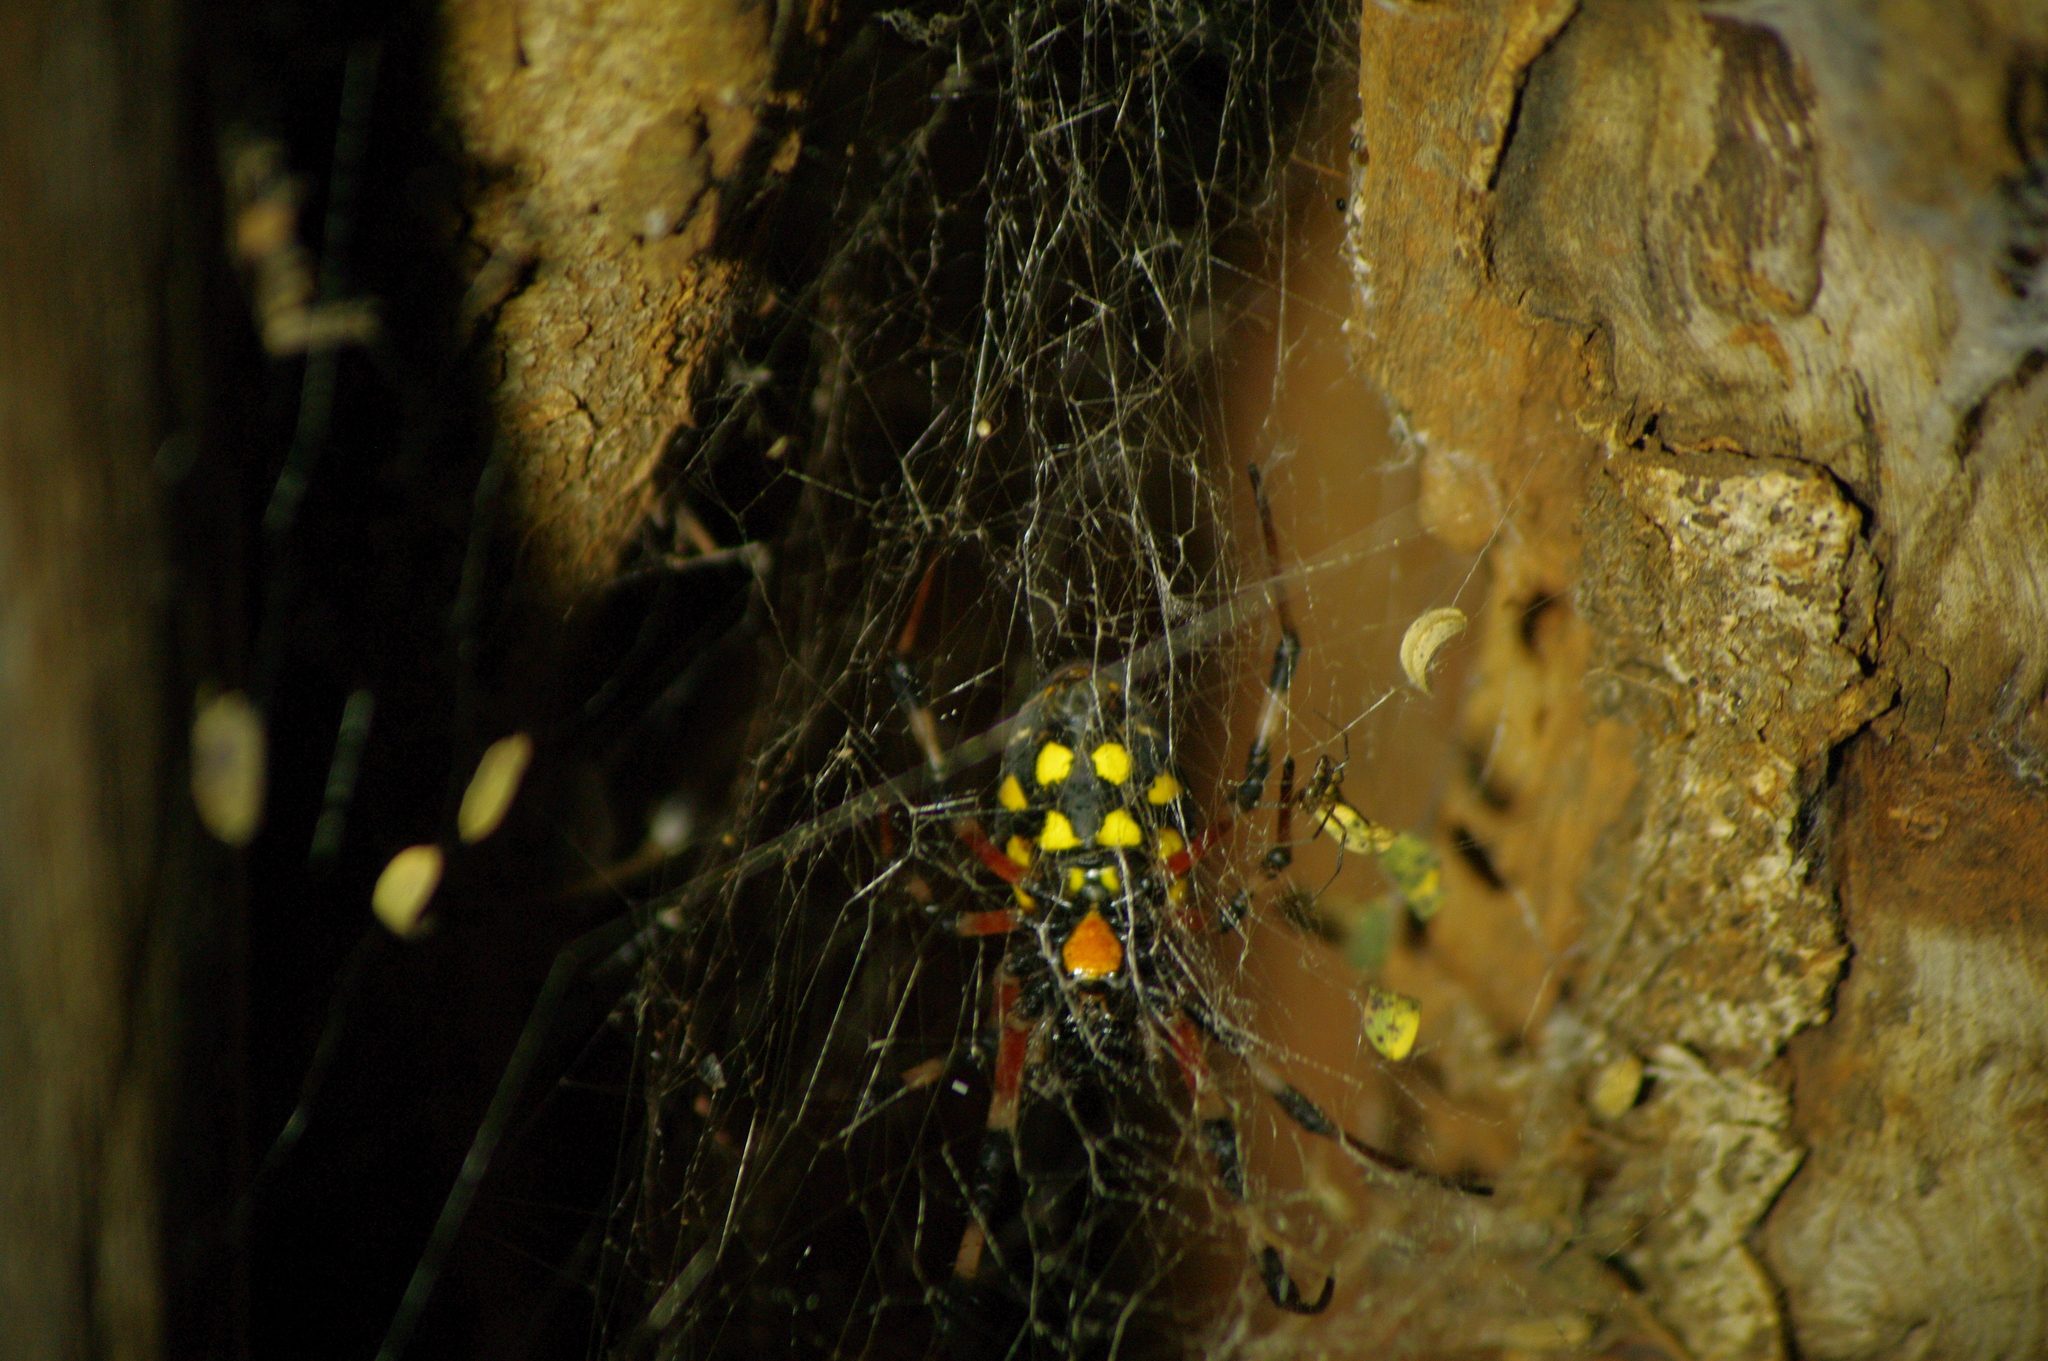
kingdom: Animalia
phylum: Arthropoda
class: Arachnida
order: Araneae
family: Araneidae
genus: Nephilingis
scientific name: Nephilingis cruentata
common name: African hermit spider
